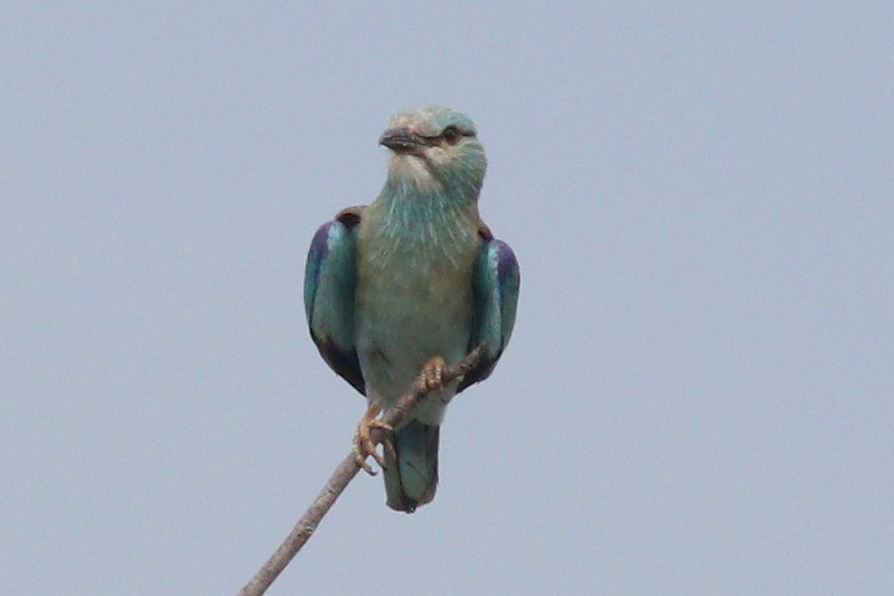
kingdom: Animalia
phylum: Chordata
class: Aves
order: Coraciiformes
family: Coraciidae
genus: Coracias
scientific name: Coracias garrulus
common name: European roller
